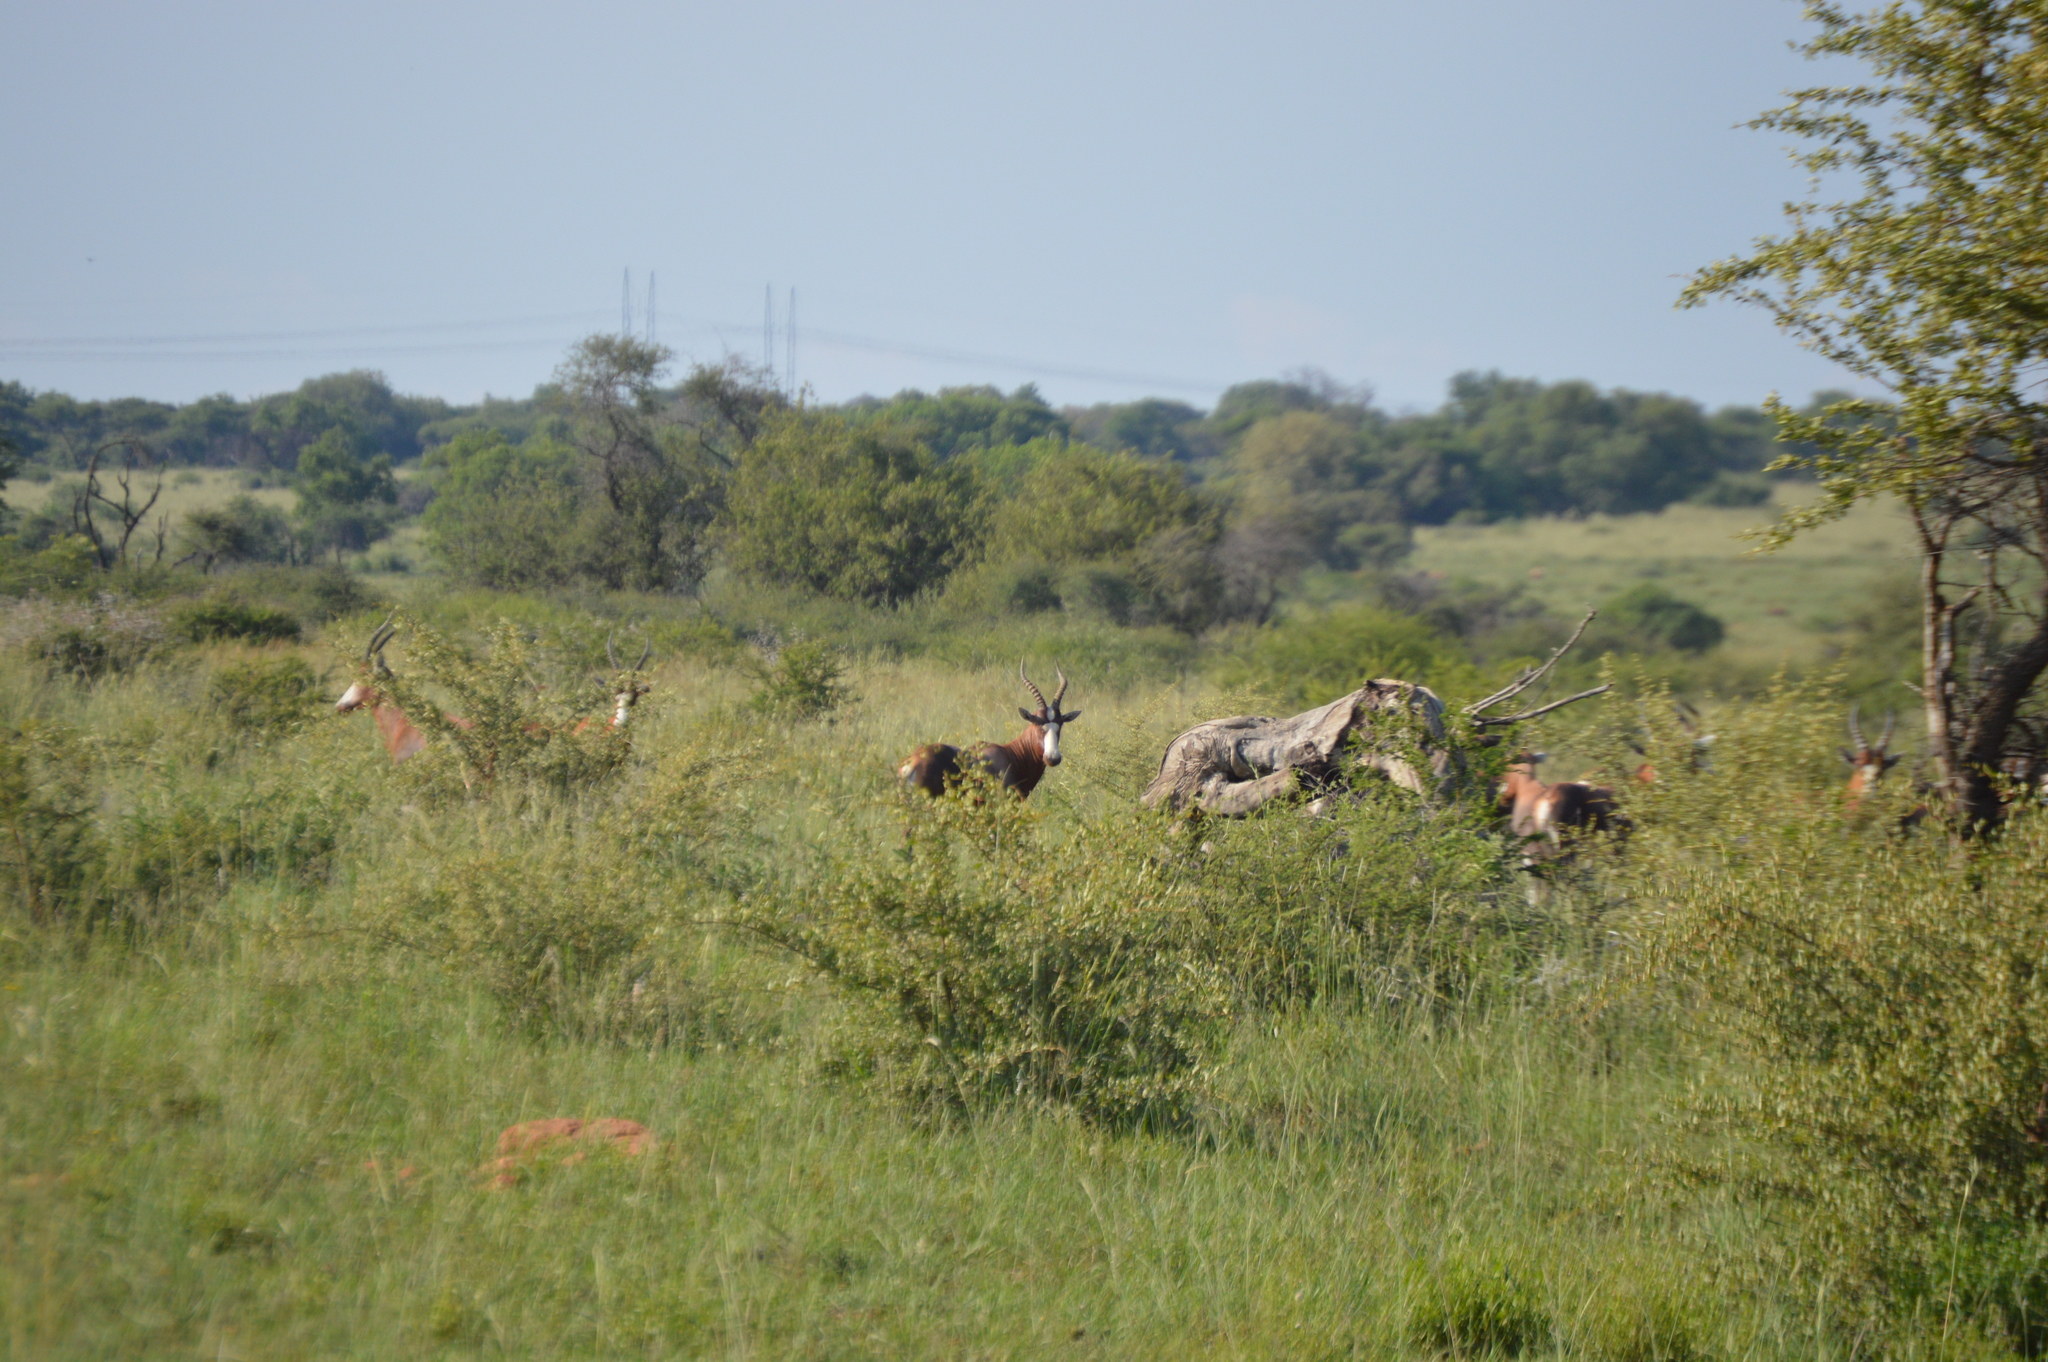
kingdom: Animalia
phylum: Chordata
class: Mammalia
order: Artiodactyla
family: Bovidae
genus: Damaliscus
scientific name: Damaliscus pygargus
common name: Bontebok
